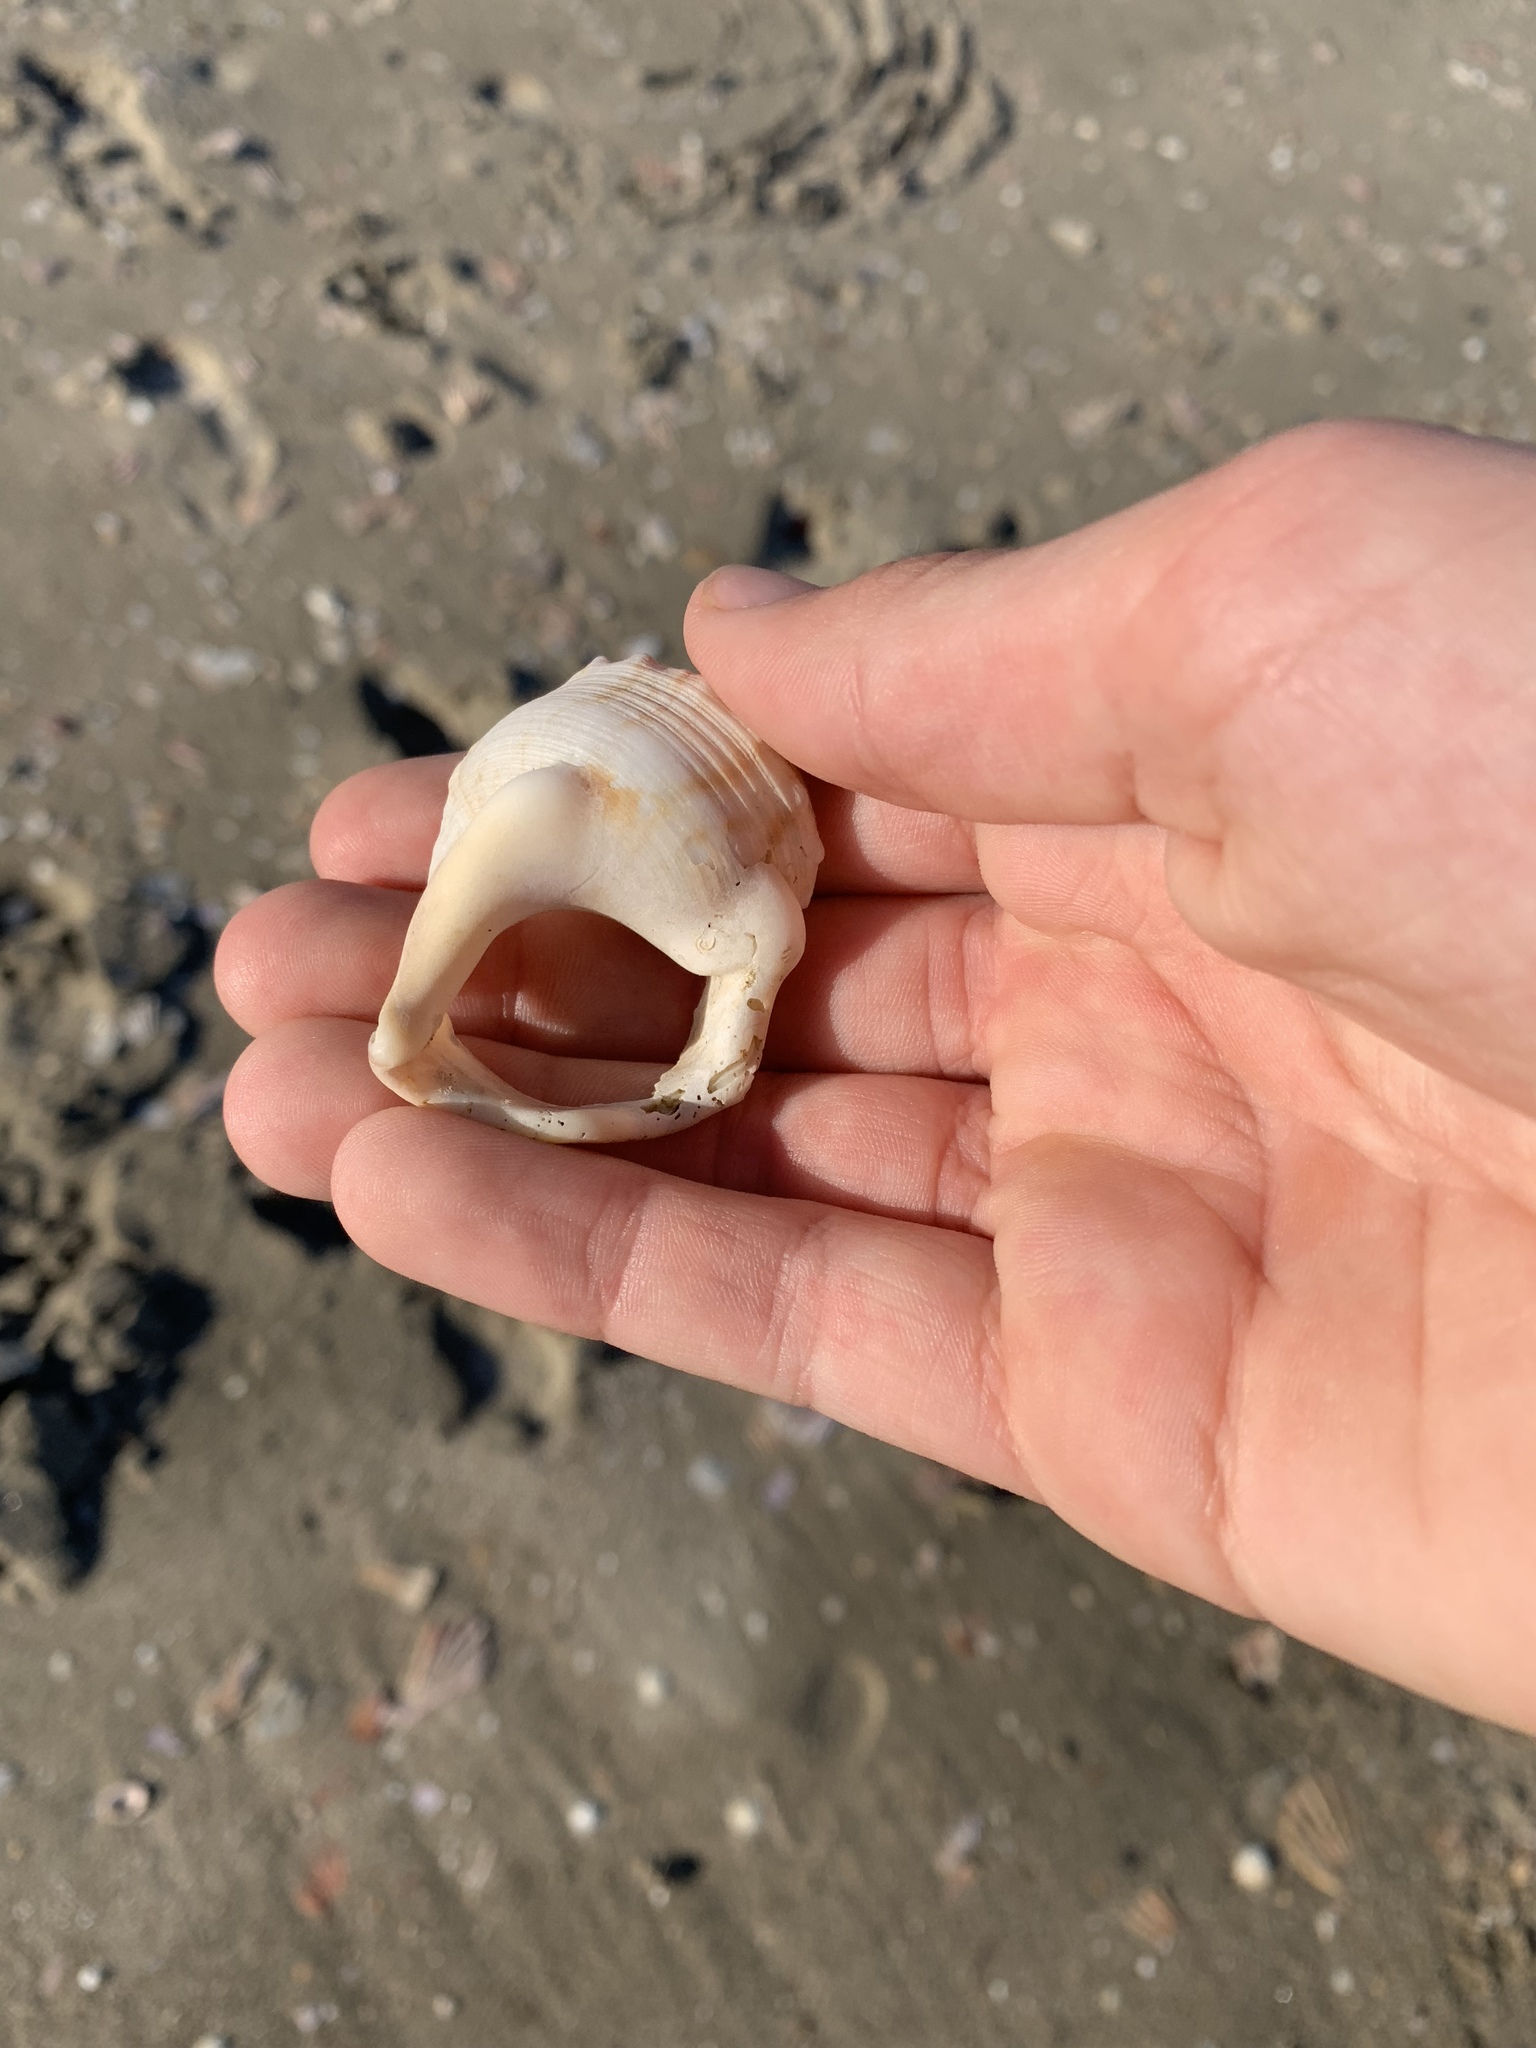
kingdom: Animalia
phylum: Mollusca
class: Gastropoda
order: Littorinimorpha
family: Struthiolariidae
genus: Struthiolaria
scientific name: Struthiolaria papulosa
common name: Large ostrich foot
